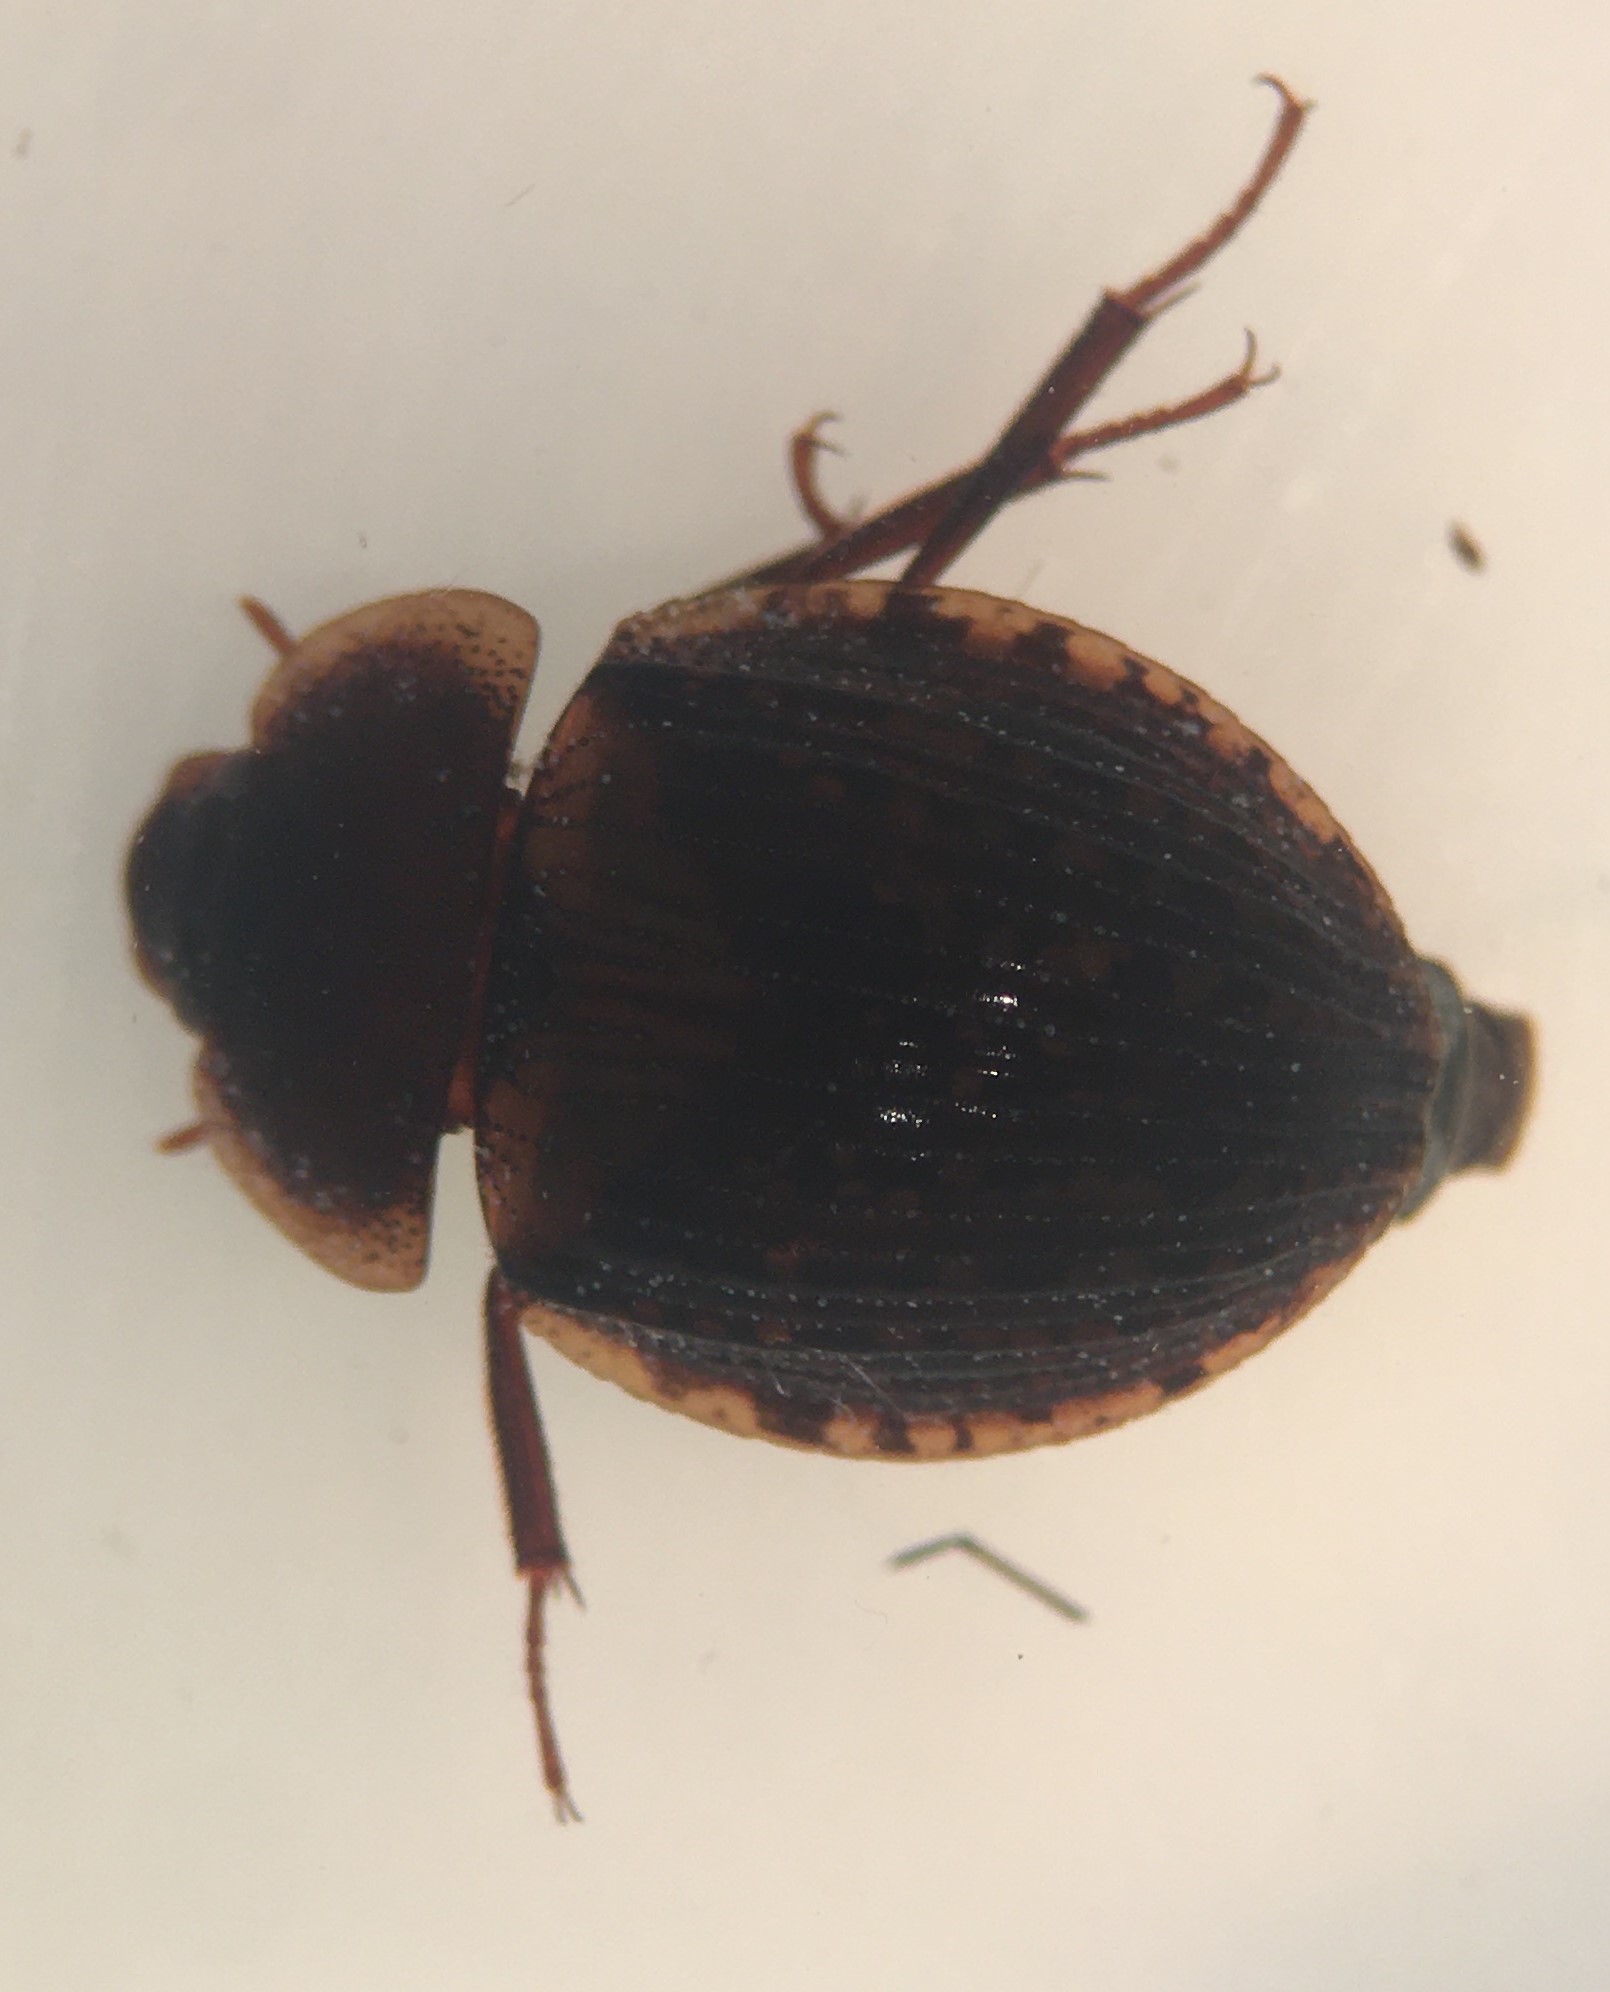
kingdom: Animalia
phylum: Arthropoda
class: Insecta
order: Coleoptera
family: Hydrophilidae
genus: Sperchopsis
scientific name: Sperchopsis tessellata
